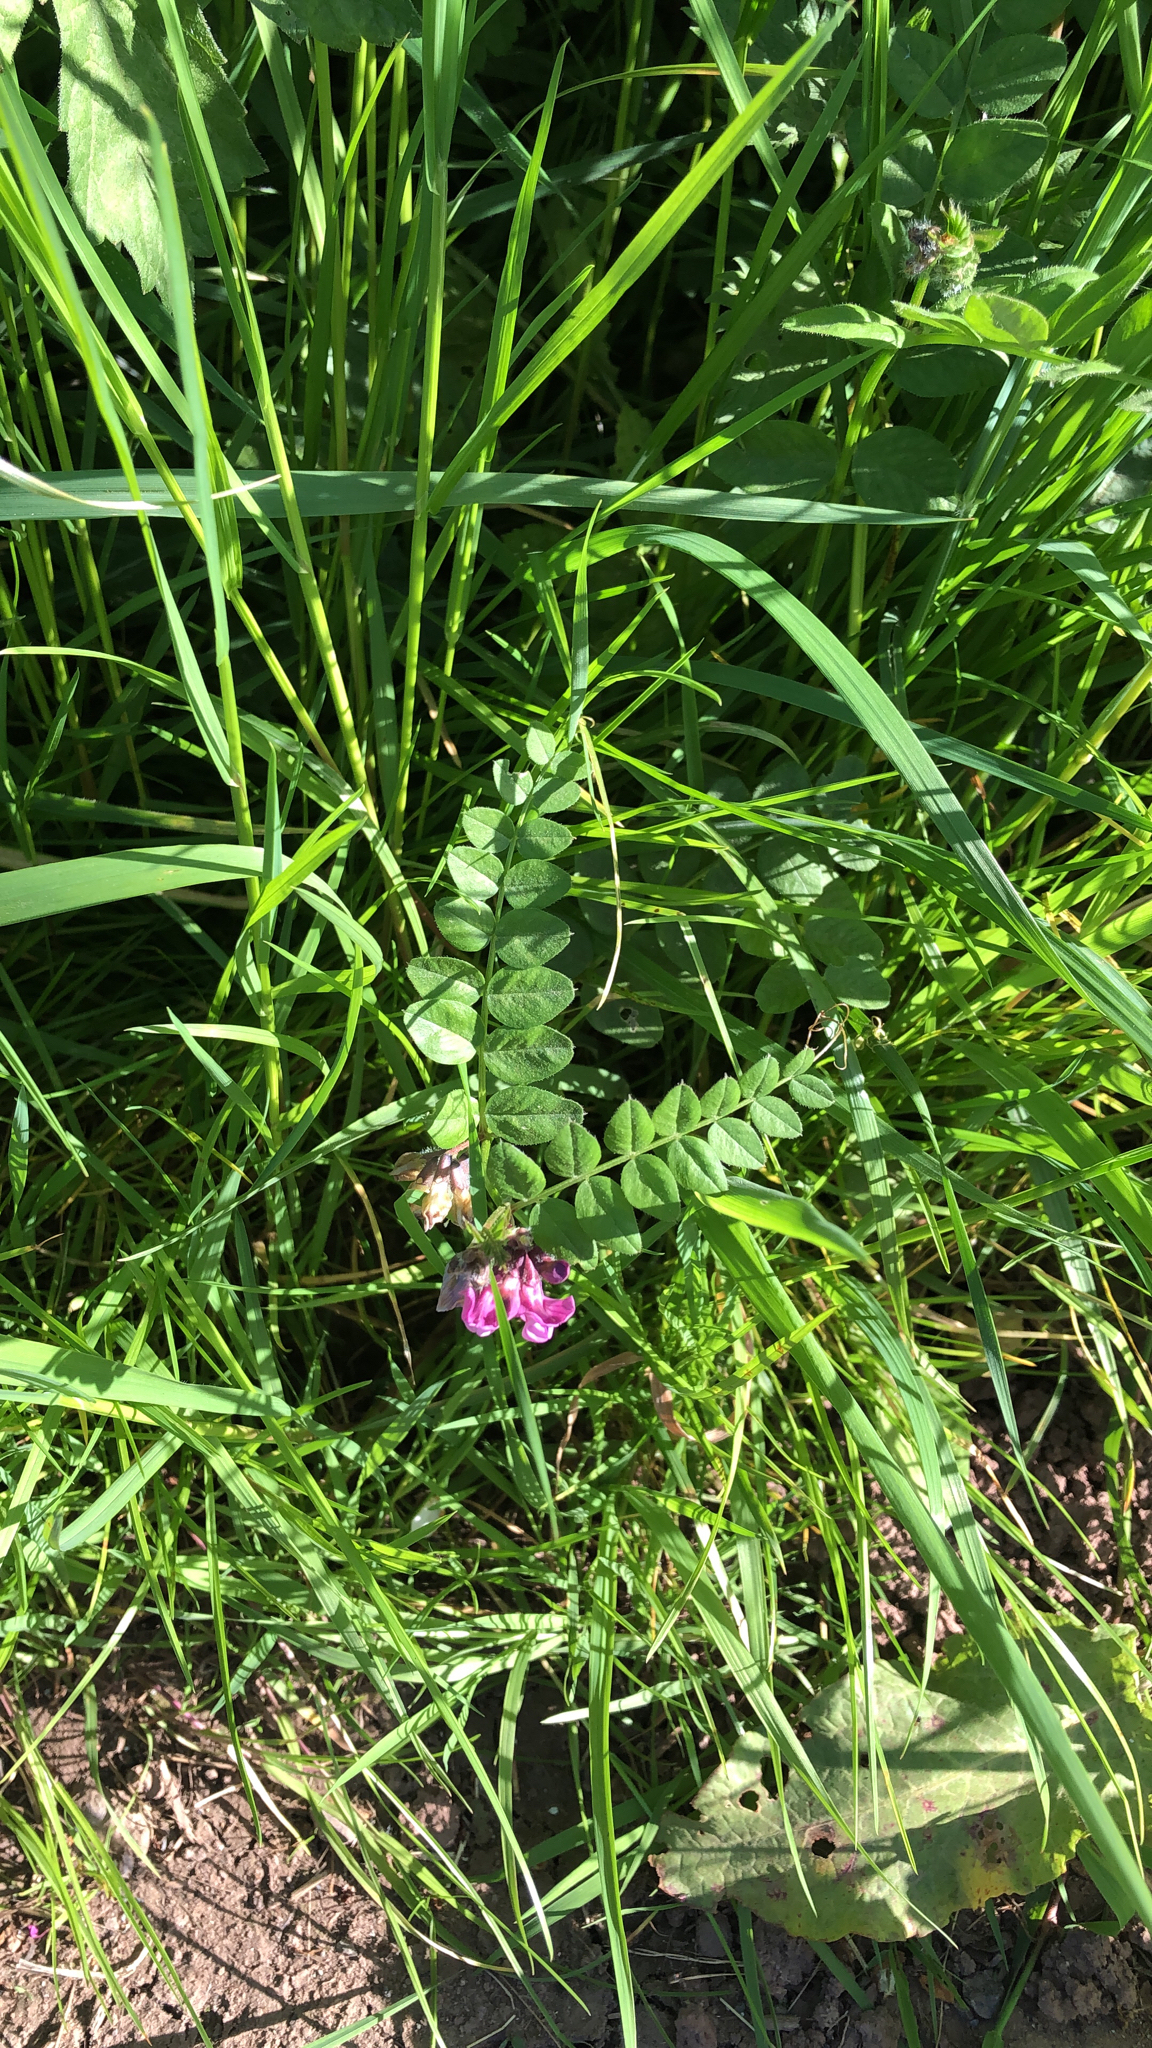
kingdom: Plantae
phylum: Tracheophyta
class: Magnoliopsida
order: Fabales
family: Fabaceae
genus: Vicia
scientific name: Vicia sepium
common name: Bush vetch
